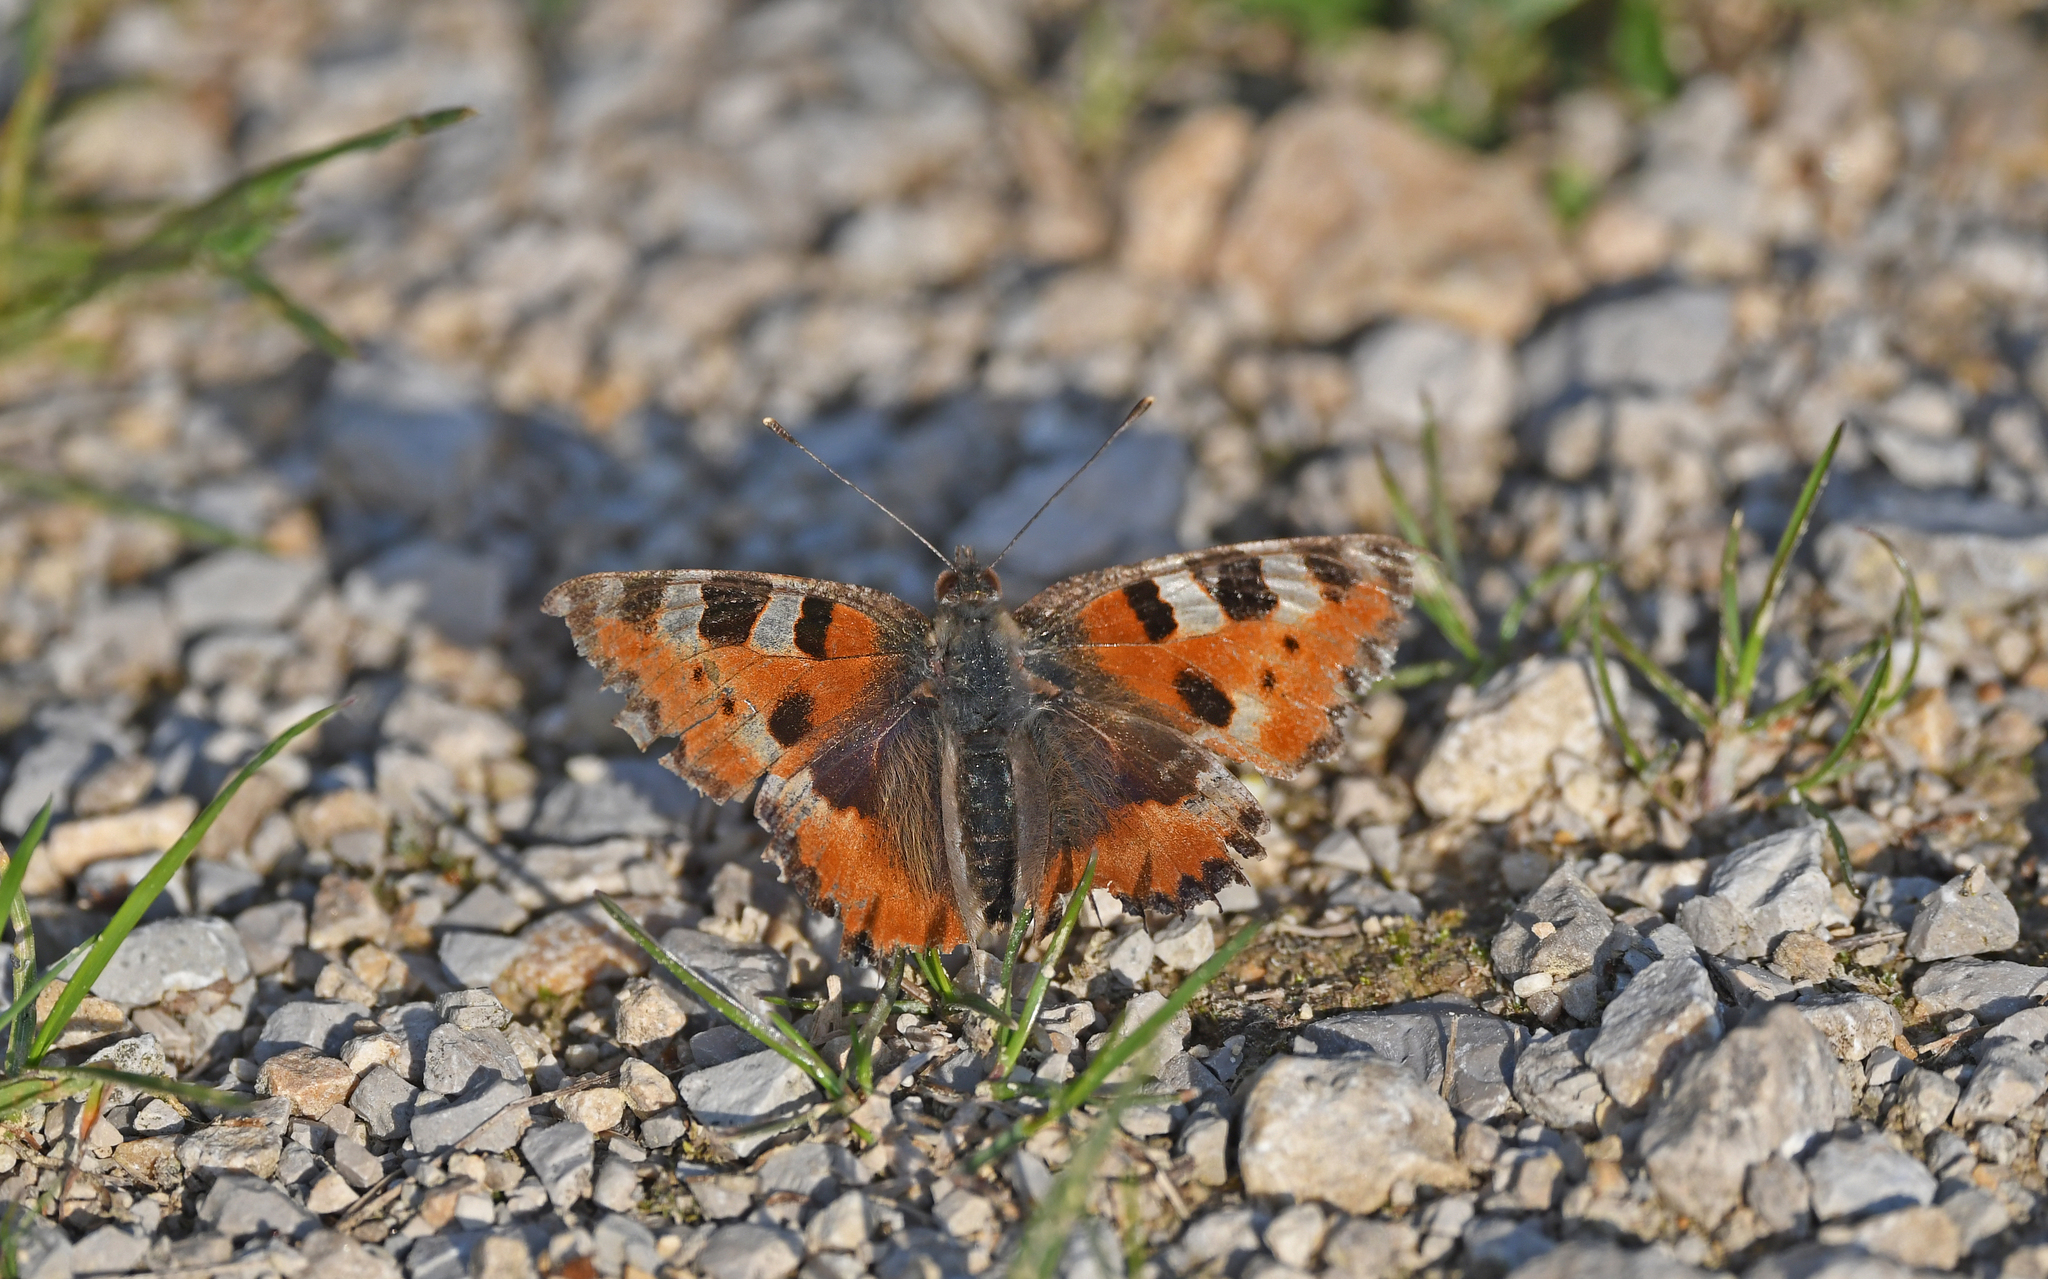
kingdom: Animalia
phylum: Arthropoda
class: Insecta
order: Lepidoptera
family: Nymphalidae
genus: Aglais
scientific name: Aglais urticae
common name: Small tortoiseshell
